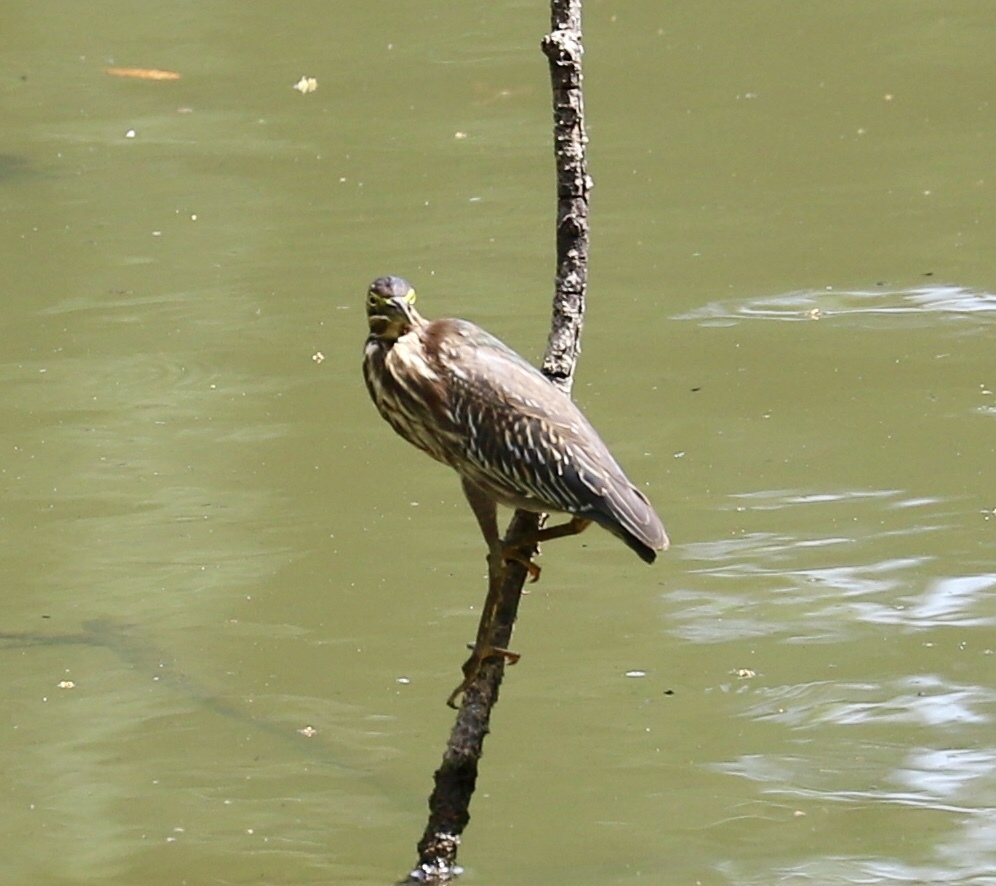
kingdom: Animalia
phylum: Chordata
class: Aves
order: Pelecaniformes
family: Ardeidae
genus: Butorides
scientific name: Butorides striata
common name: Striated heron
